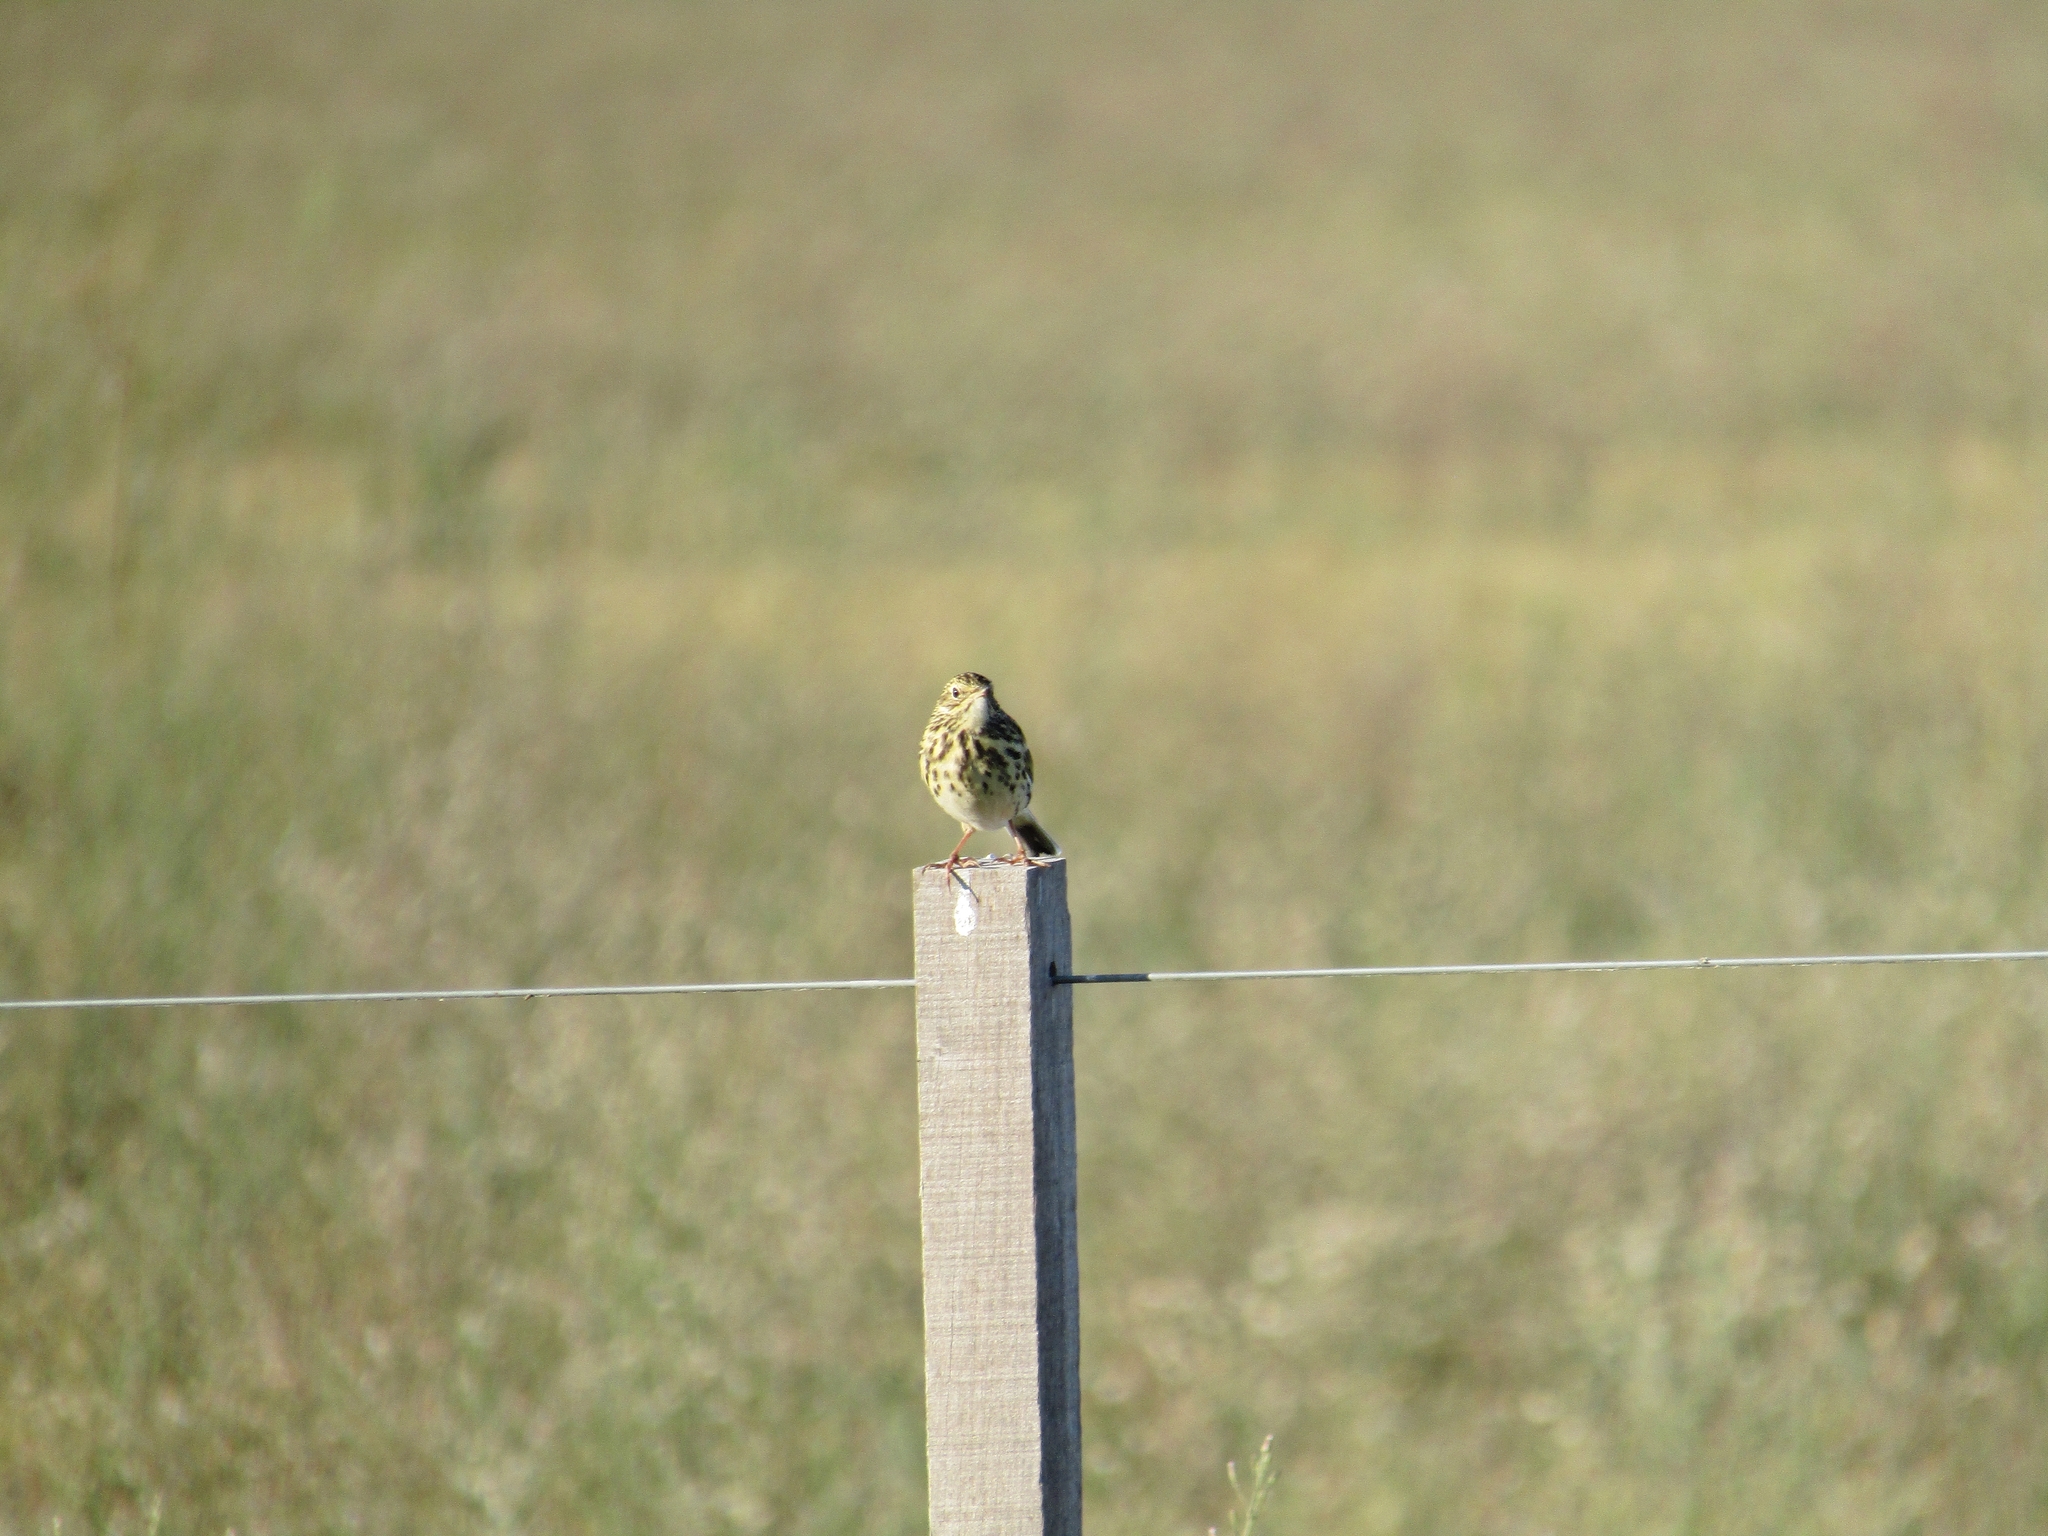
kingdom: Animalia
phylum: Chordata
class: Aves
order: Passeriformes
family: Motacillidae
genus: Anthus
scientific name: Anthus correndera
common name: Correndera pipit
